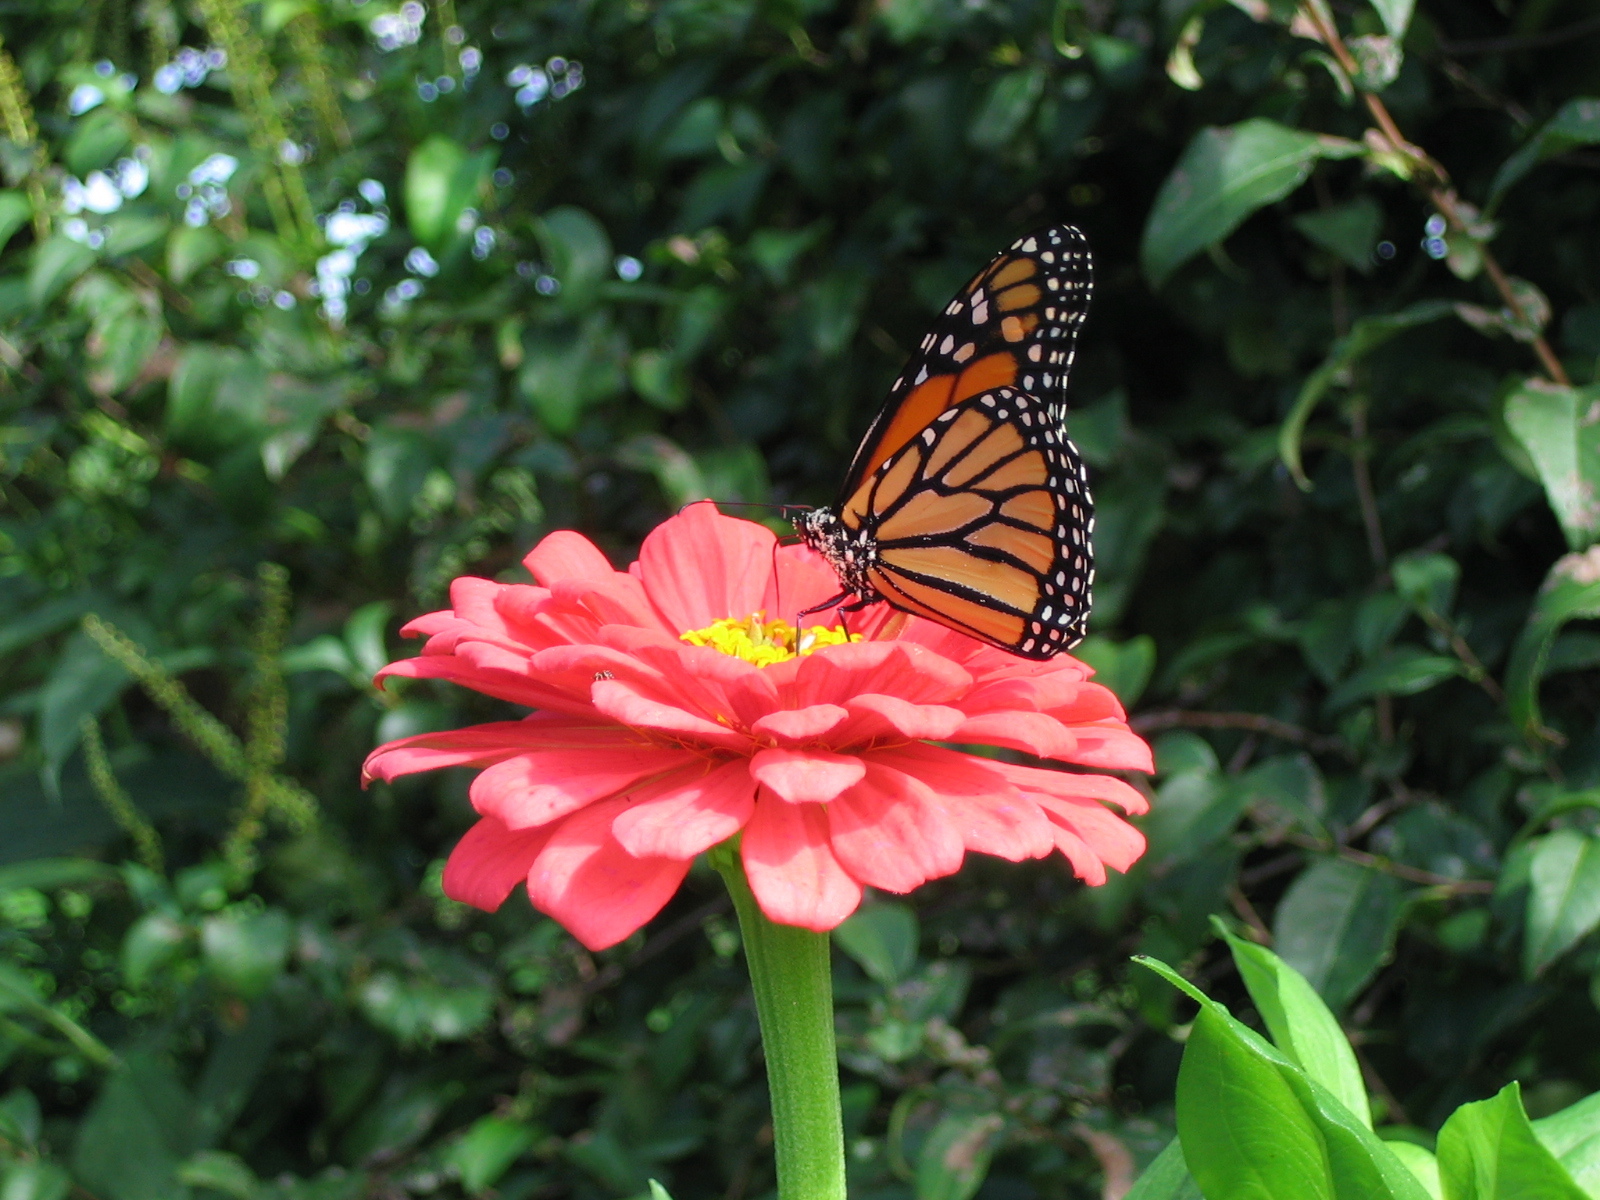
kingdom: Animalia
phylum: Arthropoda
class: Insecta
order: Lepidoptera
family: Nymphalidae
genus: Danaus
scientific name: Danaus plexippus
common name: Monarch
